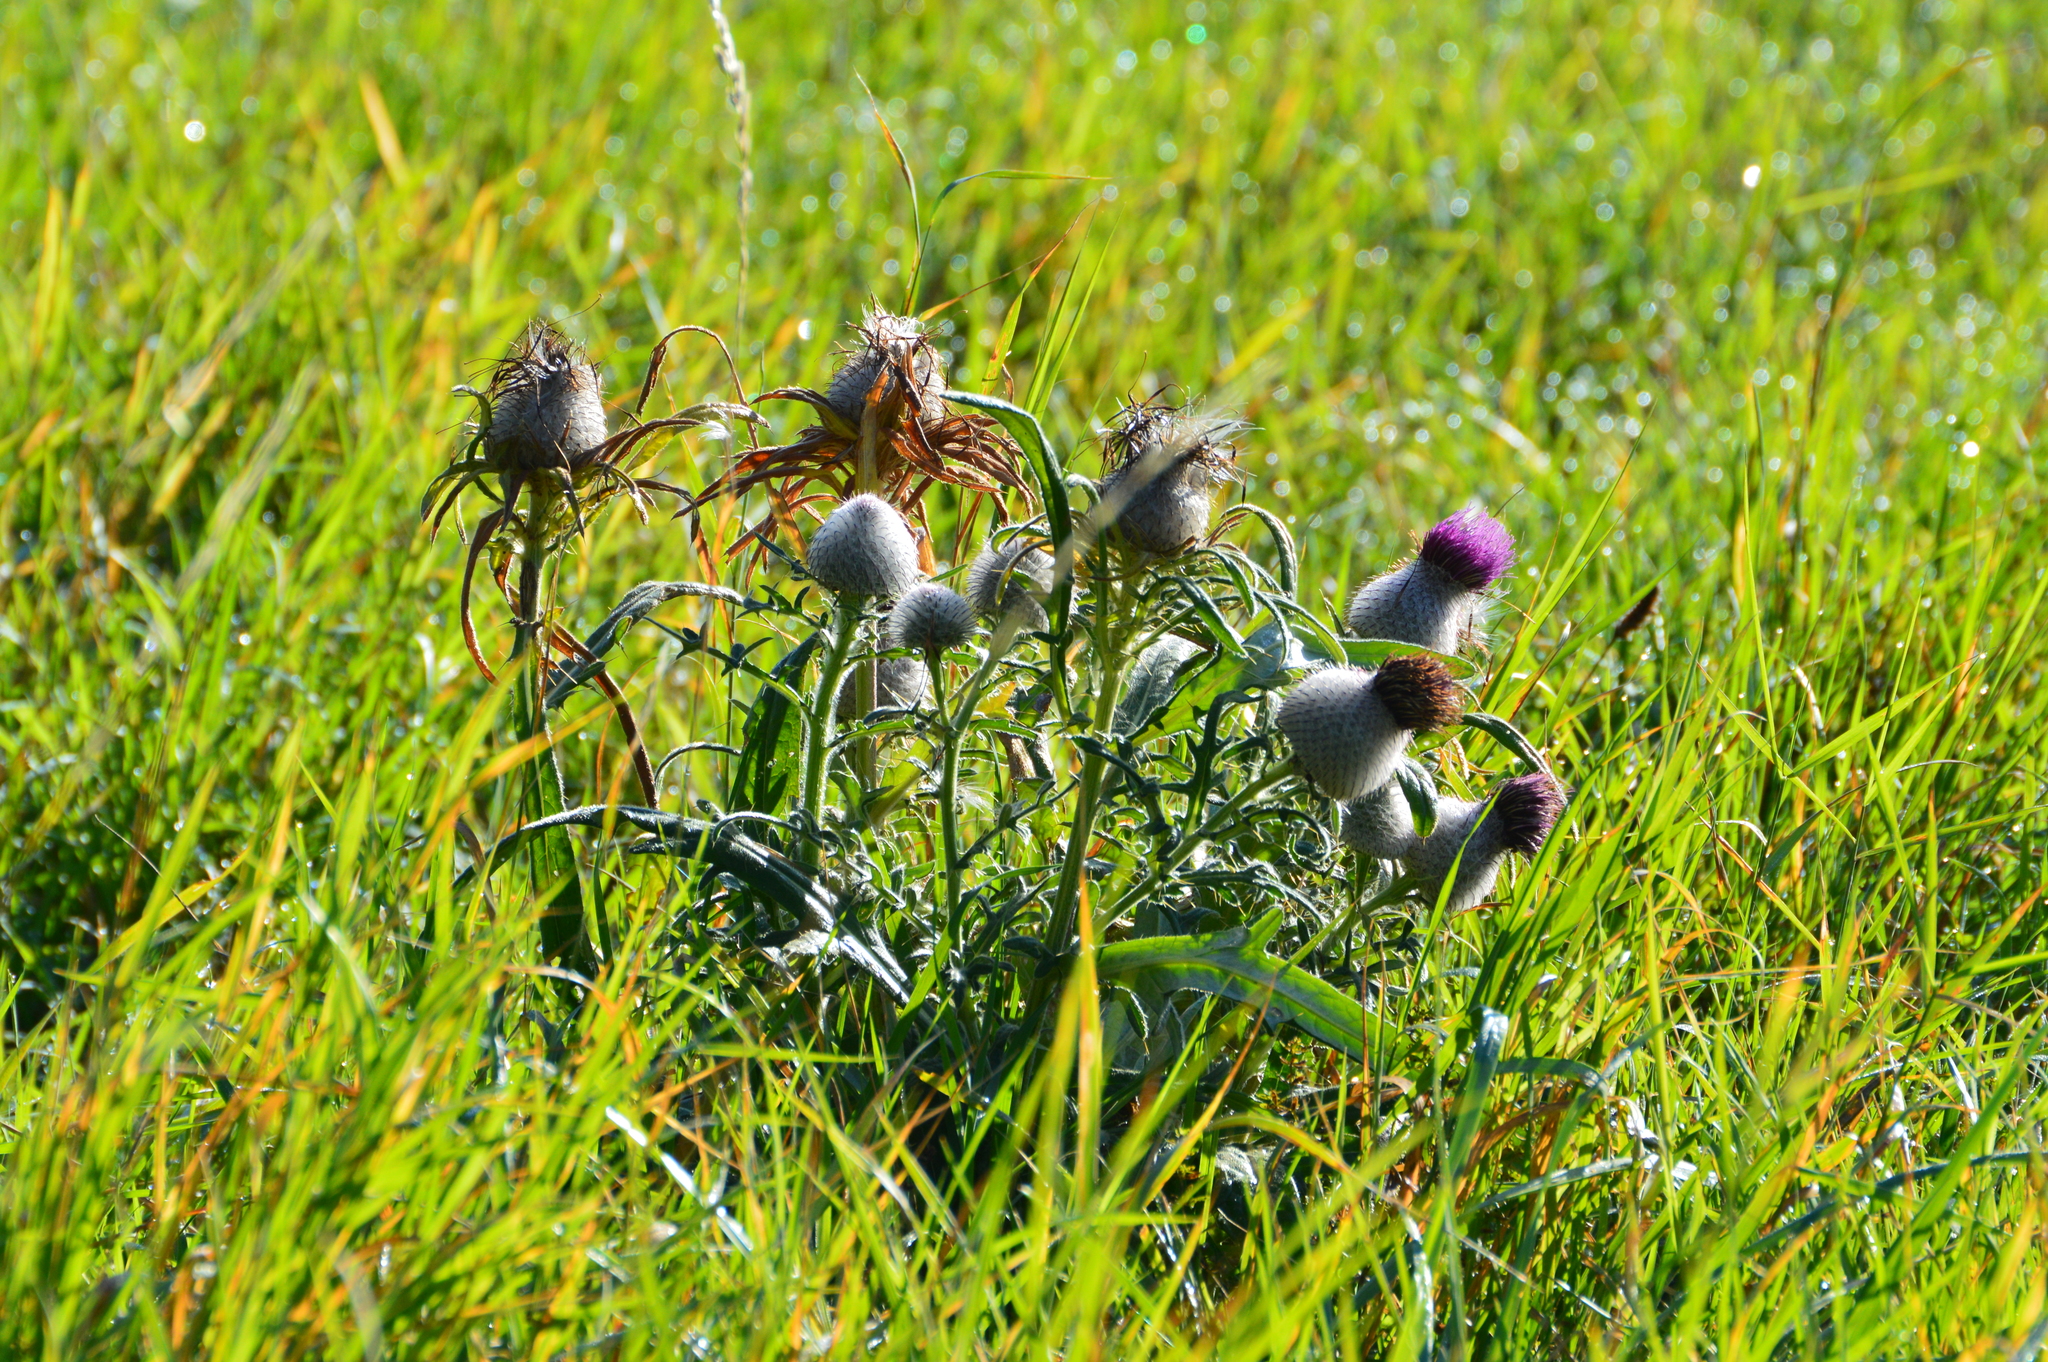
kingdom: Plantae
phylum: Tracheophyta
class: Magnoliopsida
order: Asterales
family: Asteraceae
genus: Lophiolepis
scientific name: Lophiolepis eriophora
